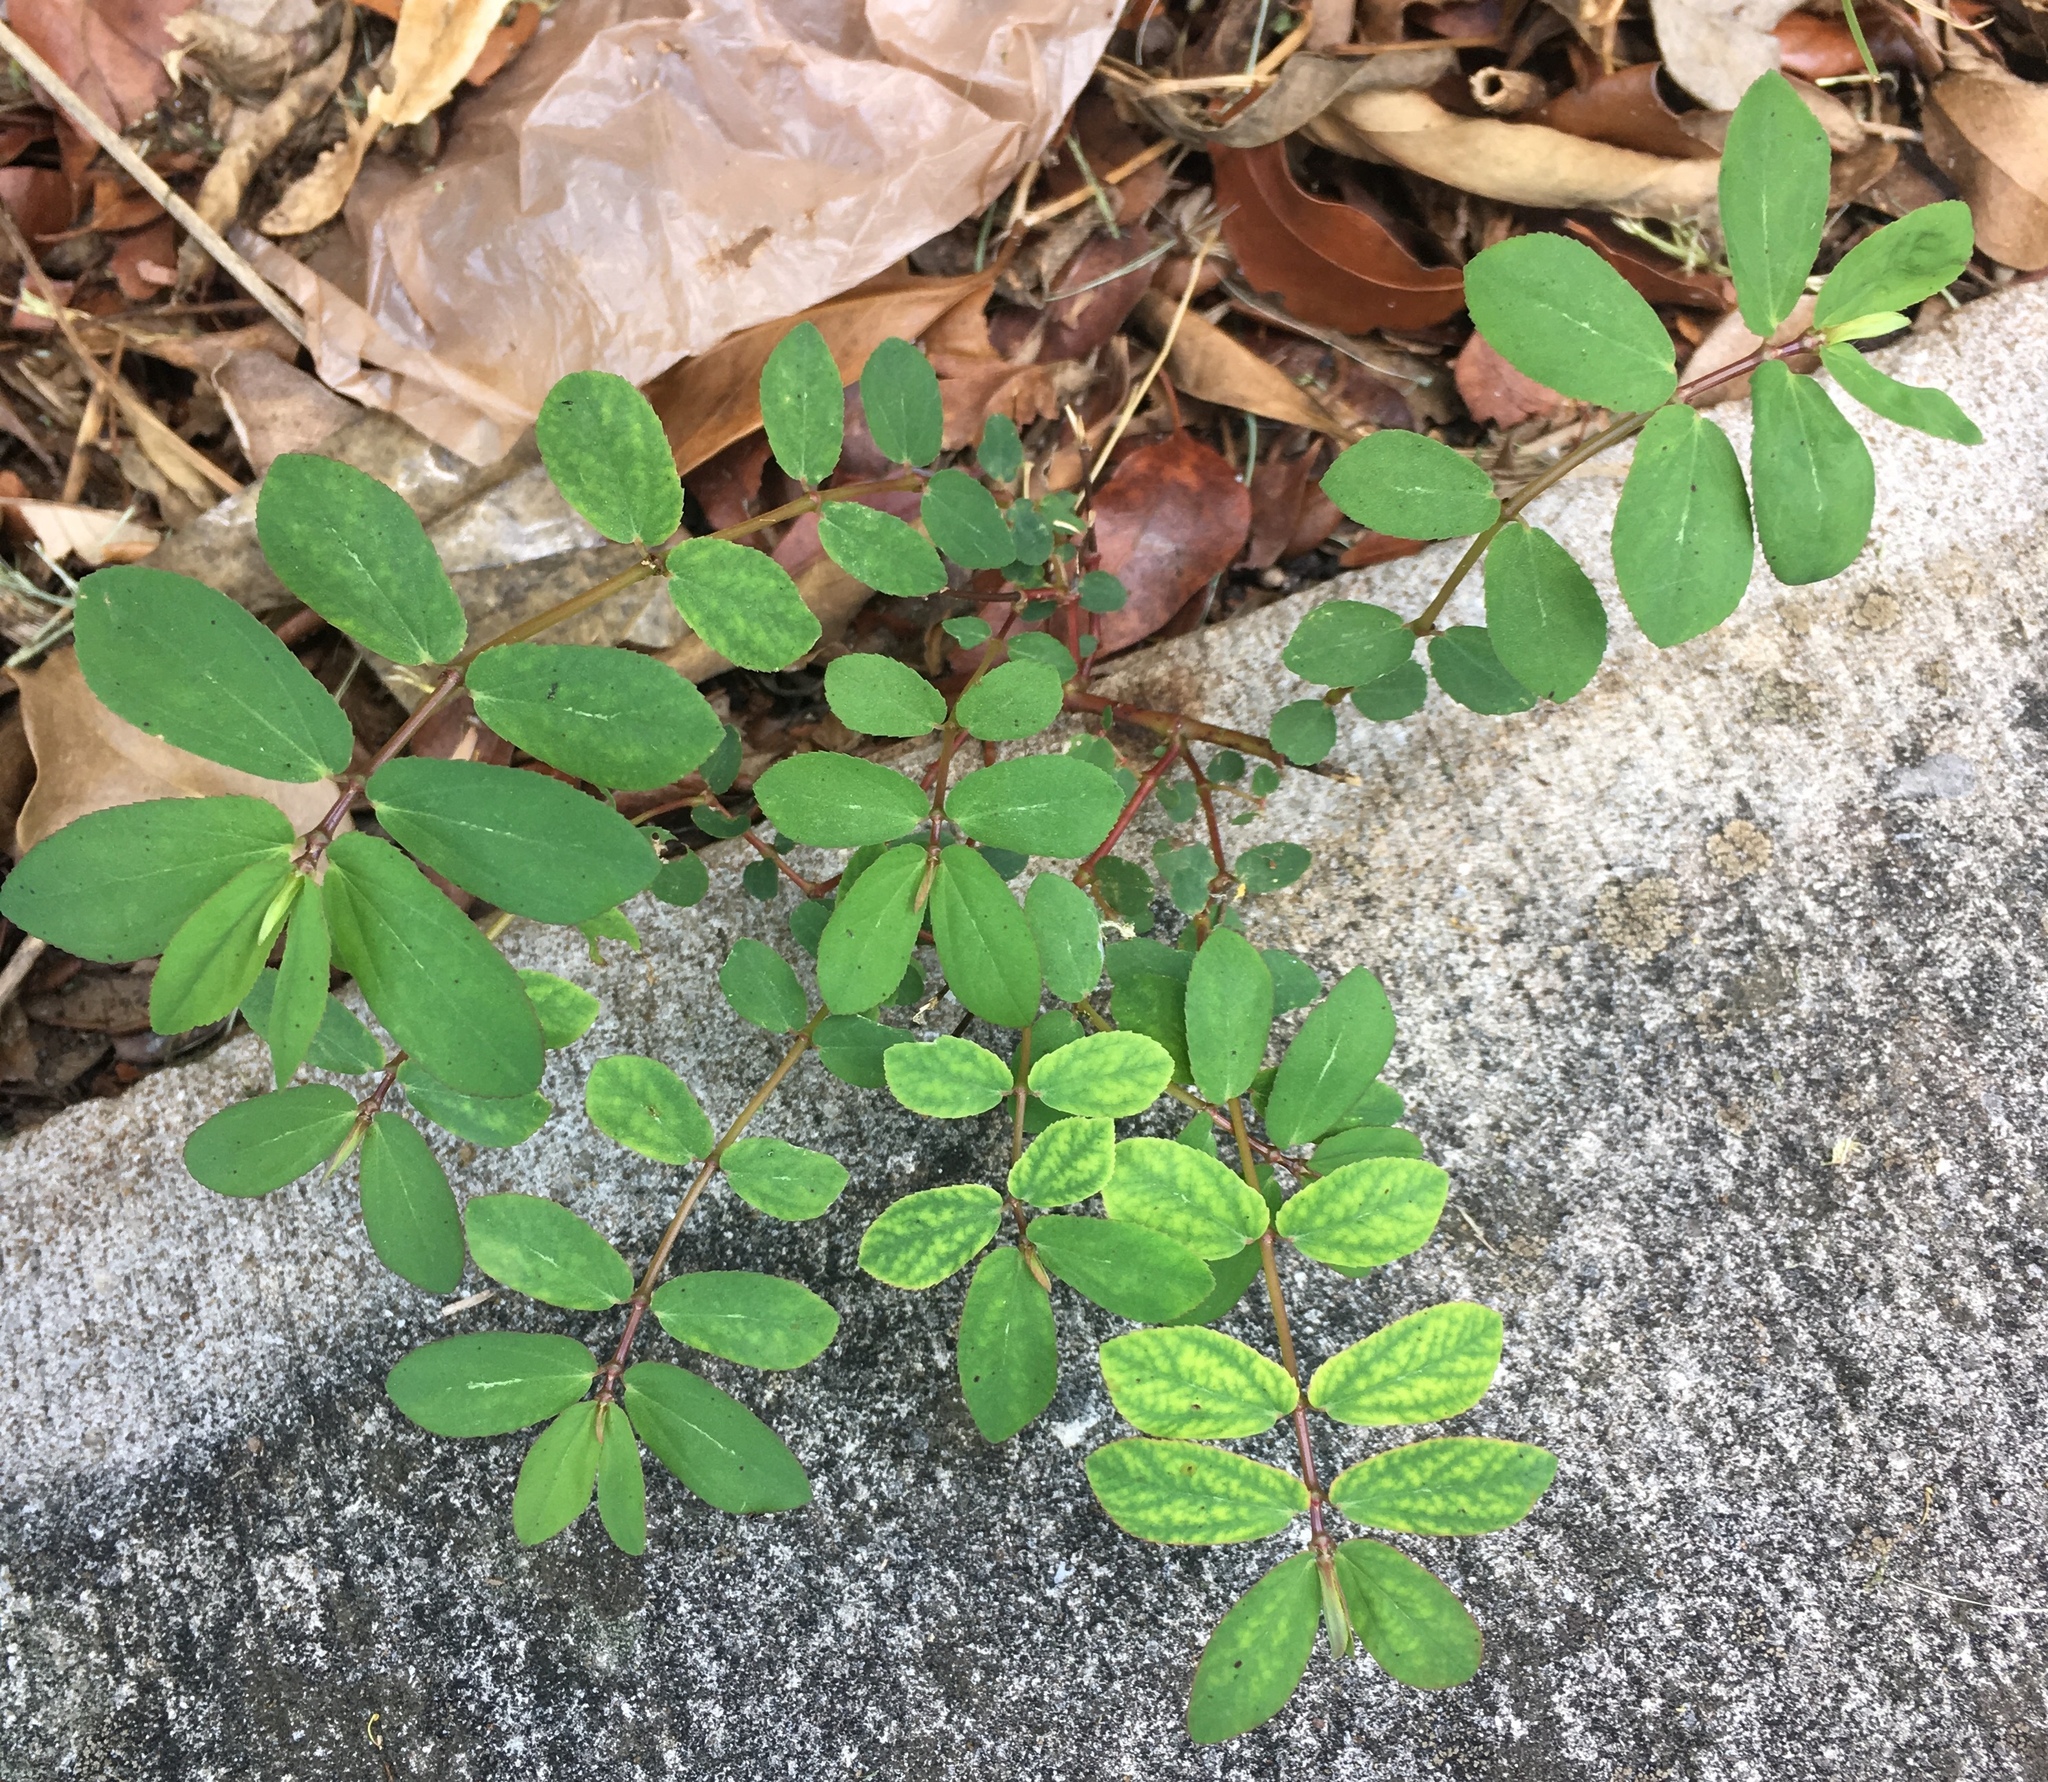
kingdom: Plantae
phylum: Tracheophyta
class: Magnoliopsida
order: Malpighiales
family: Euphorbiaceae
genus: Euphorbia
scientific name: Euphorbia hyssopifolia
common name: Hyssopleaf sandmat
